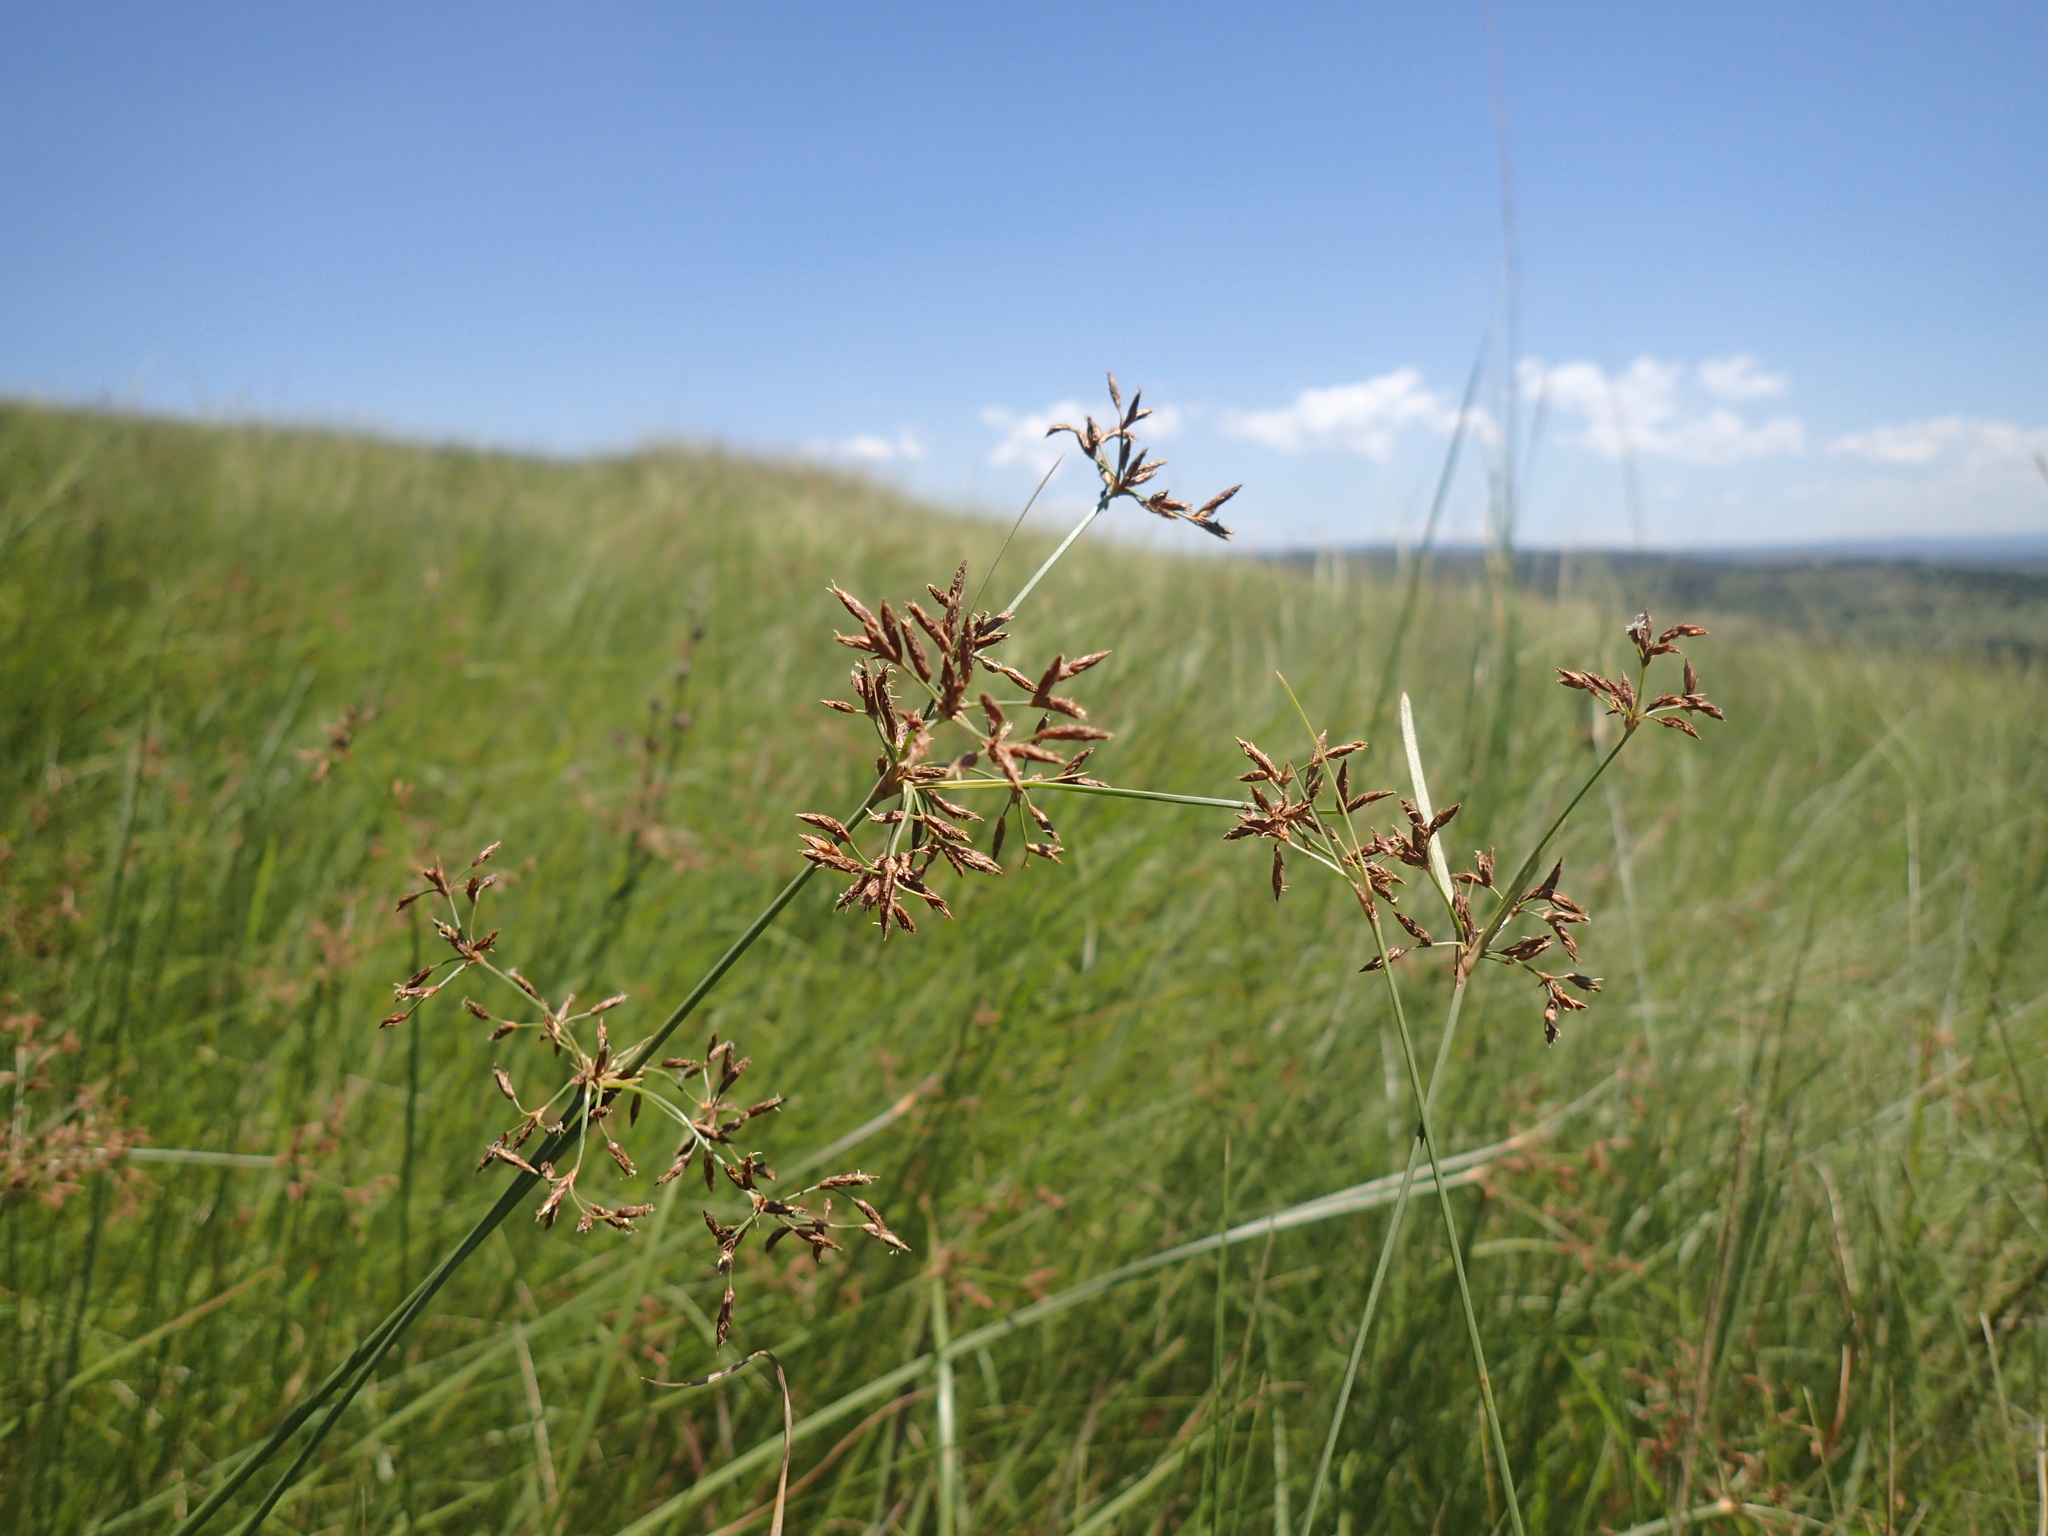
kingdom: Plantae
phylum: Tracheophyta
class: Liliopsida
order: Poales
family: Cyperaceae
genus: Fimbristylis
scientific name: Fimbristylis complanata
